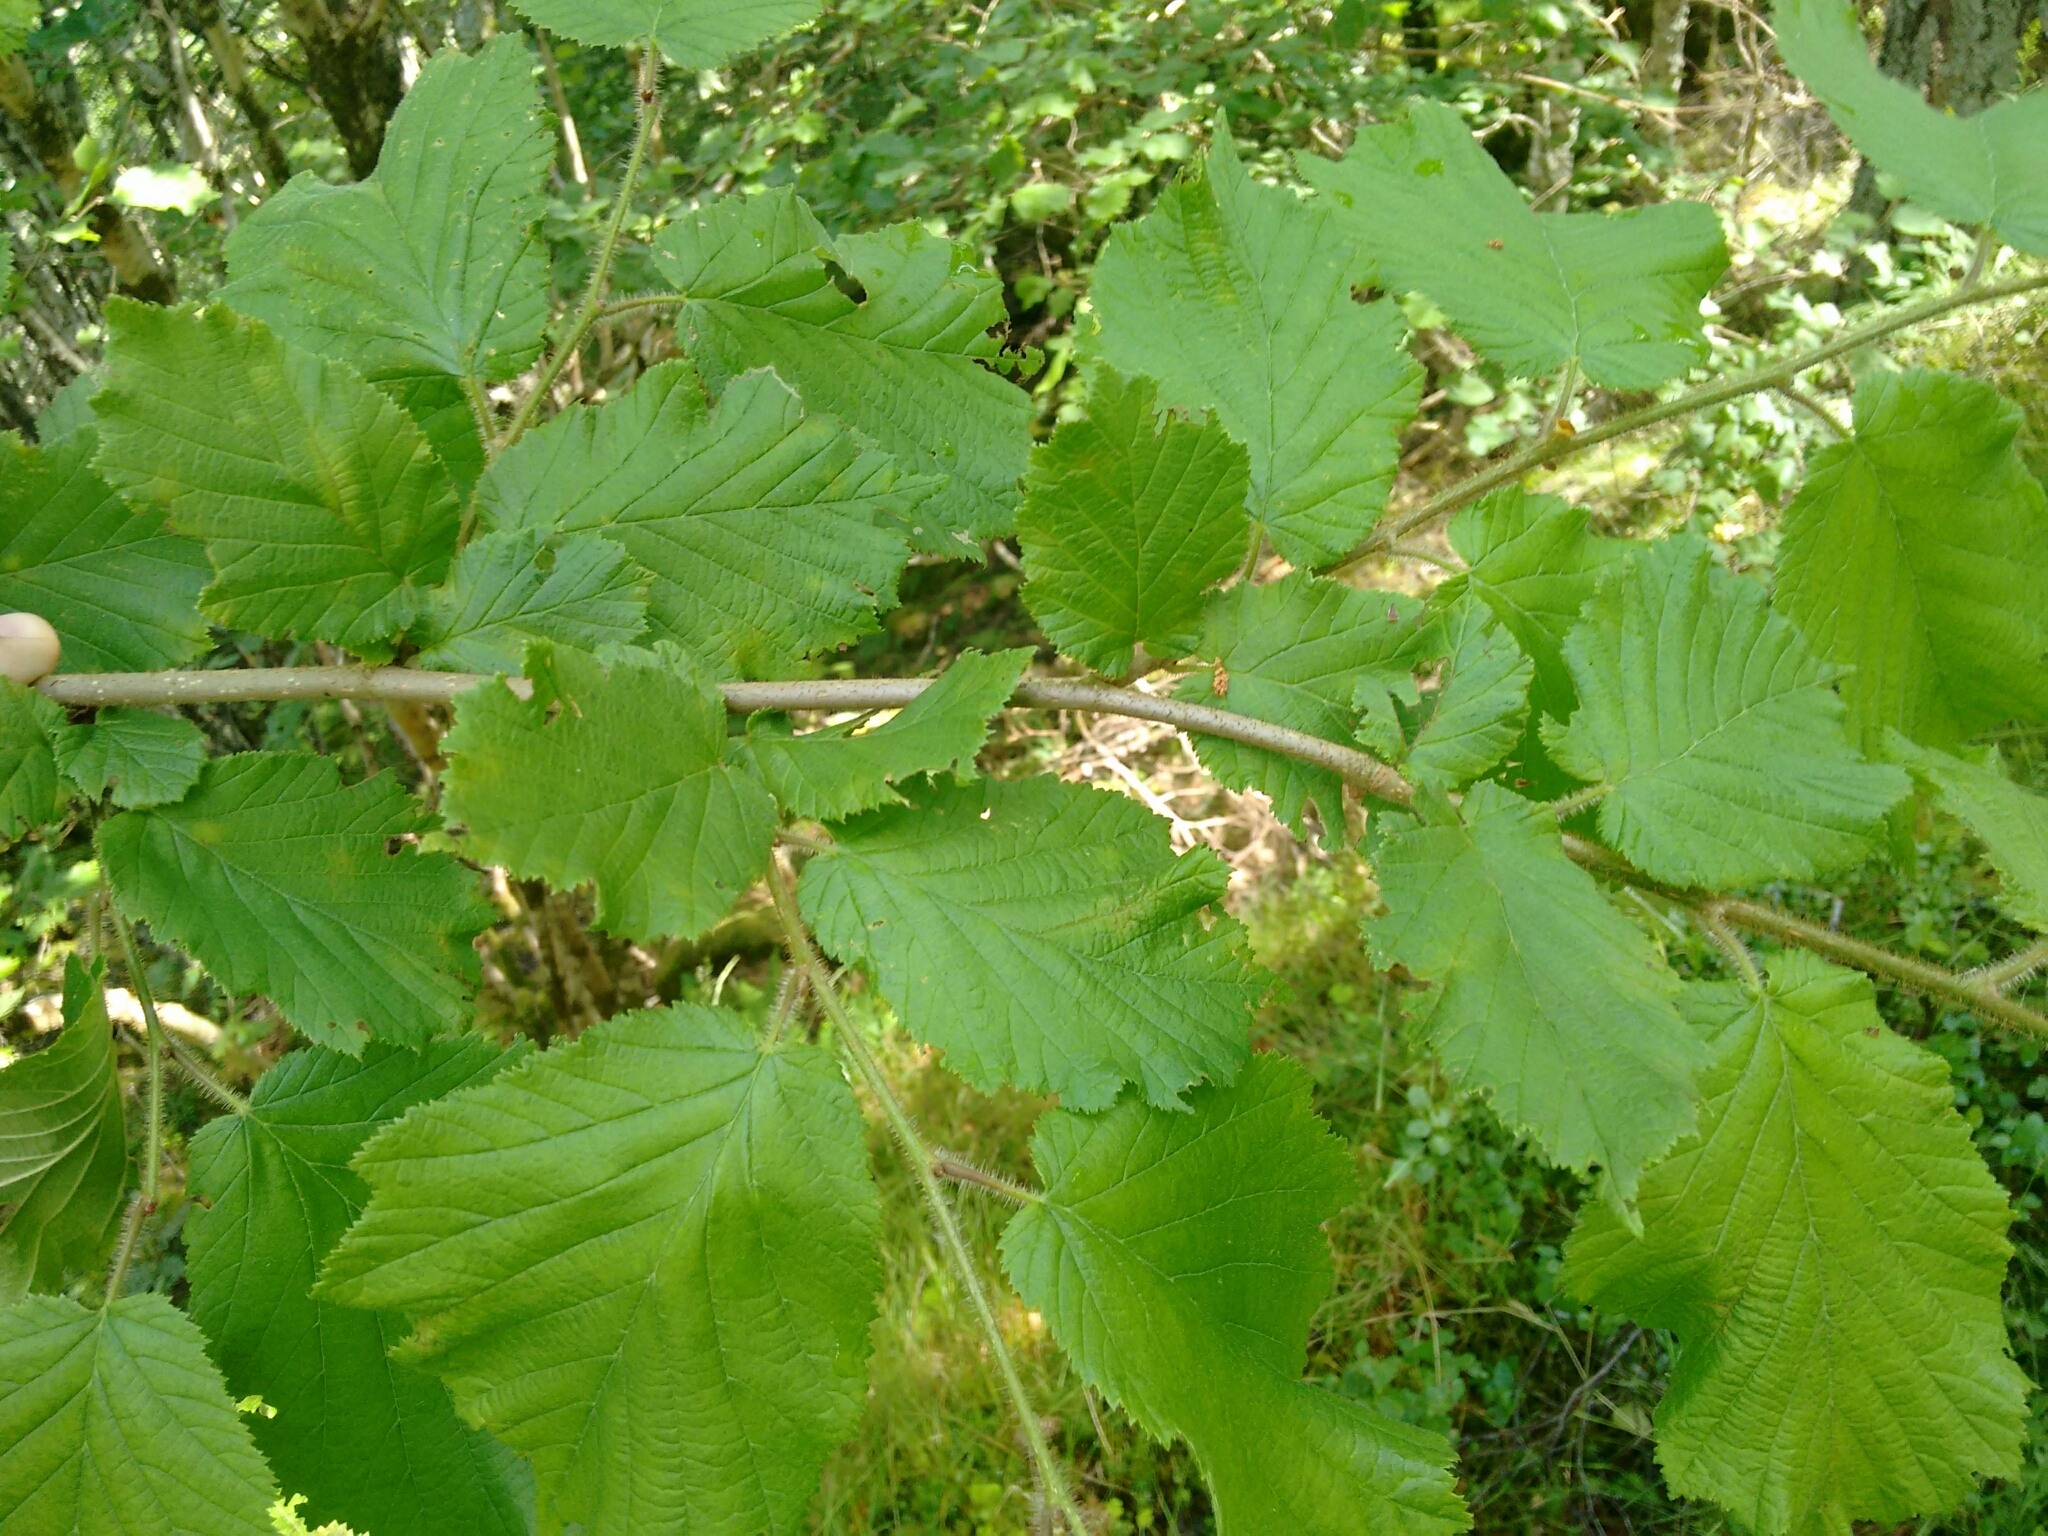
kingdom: Plantae
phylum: Tracheophyta
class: Magnoliopsida
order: Fagales
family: Betulaceae
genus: Corylus
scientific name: Corylus avellana
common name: European hazel
